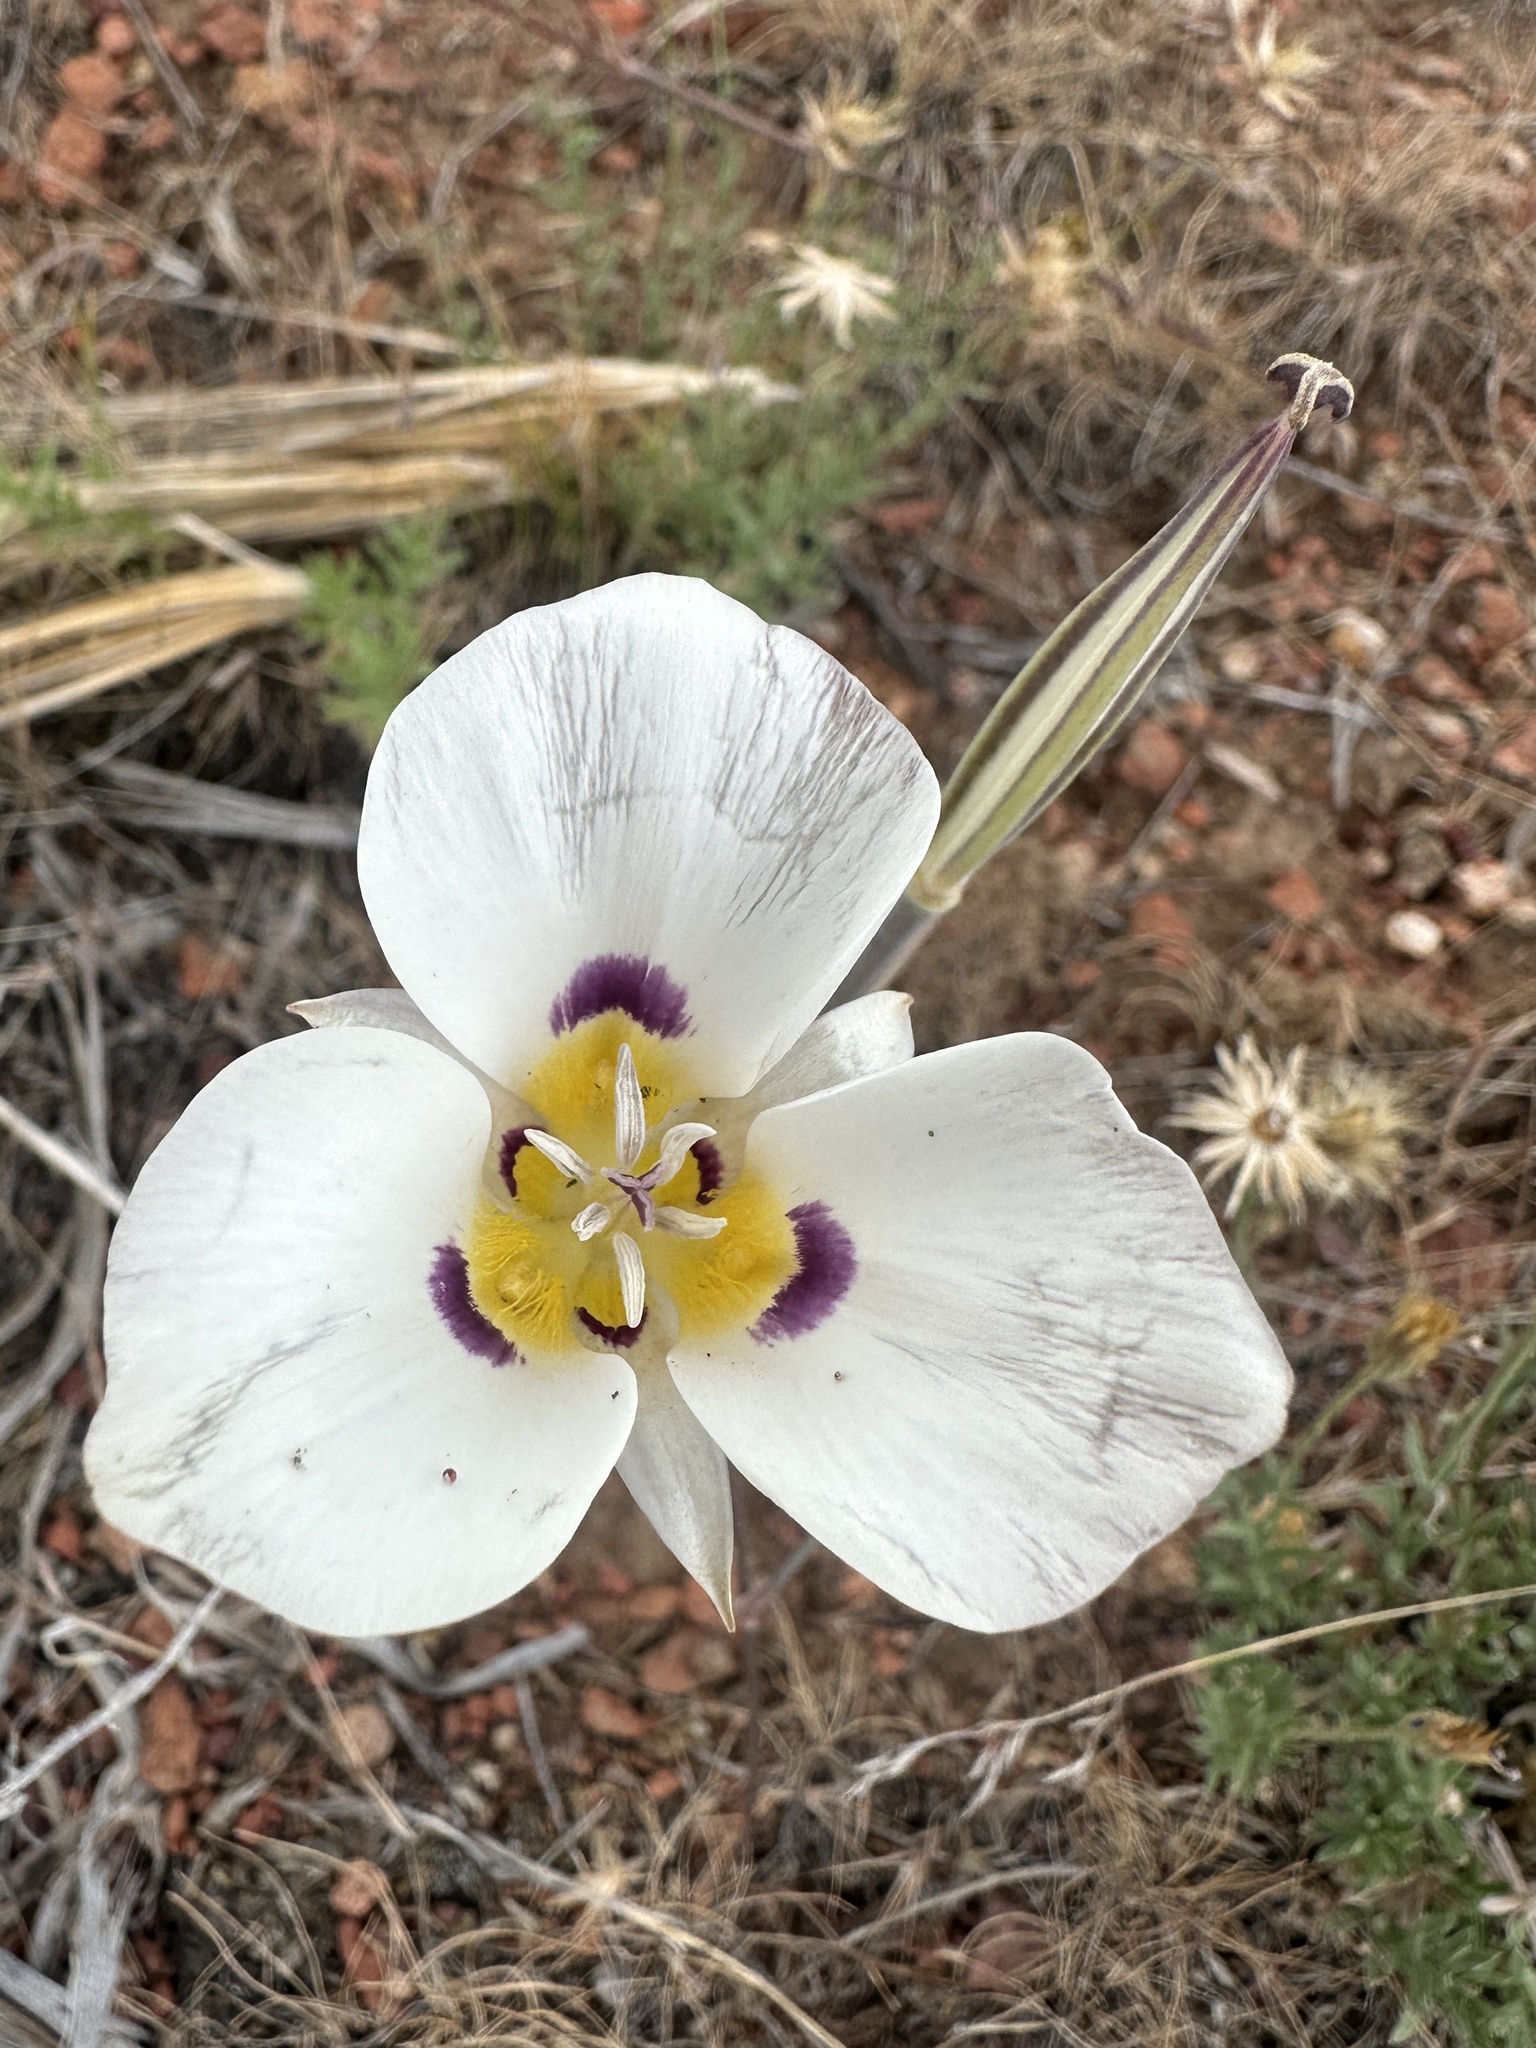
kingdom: Plantae
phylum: Tracheophyta
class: Liliopsida
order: Liliales
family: Liliaceae
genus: Calochortus
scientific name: Calochortus leichtlinii
